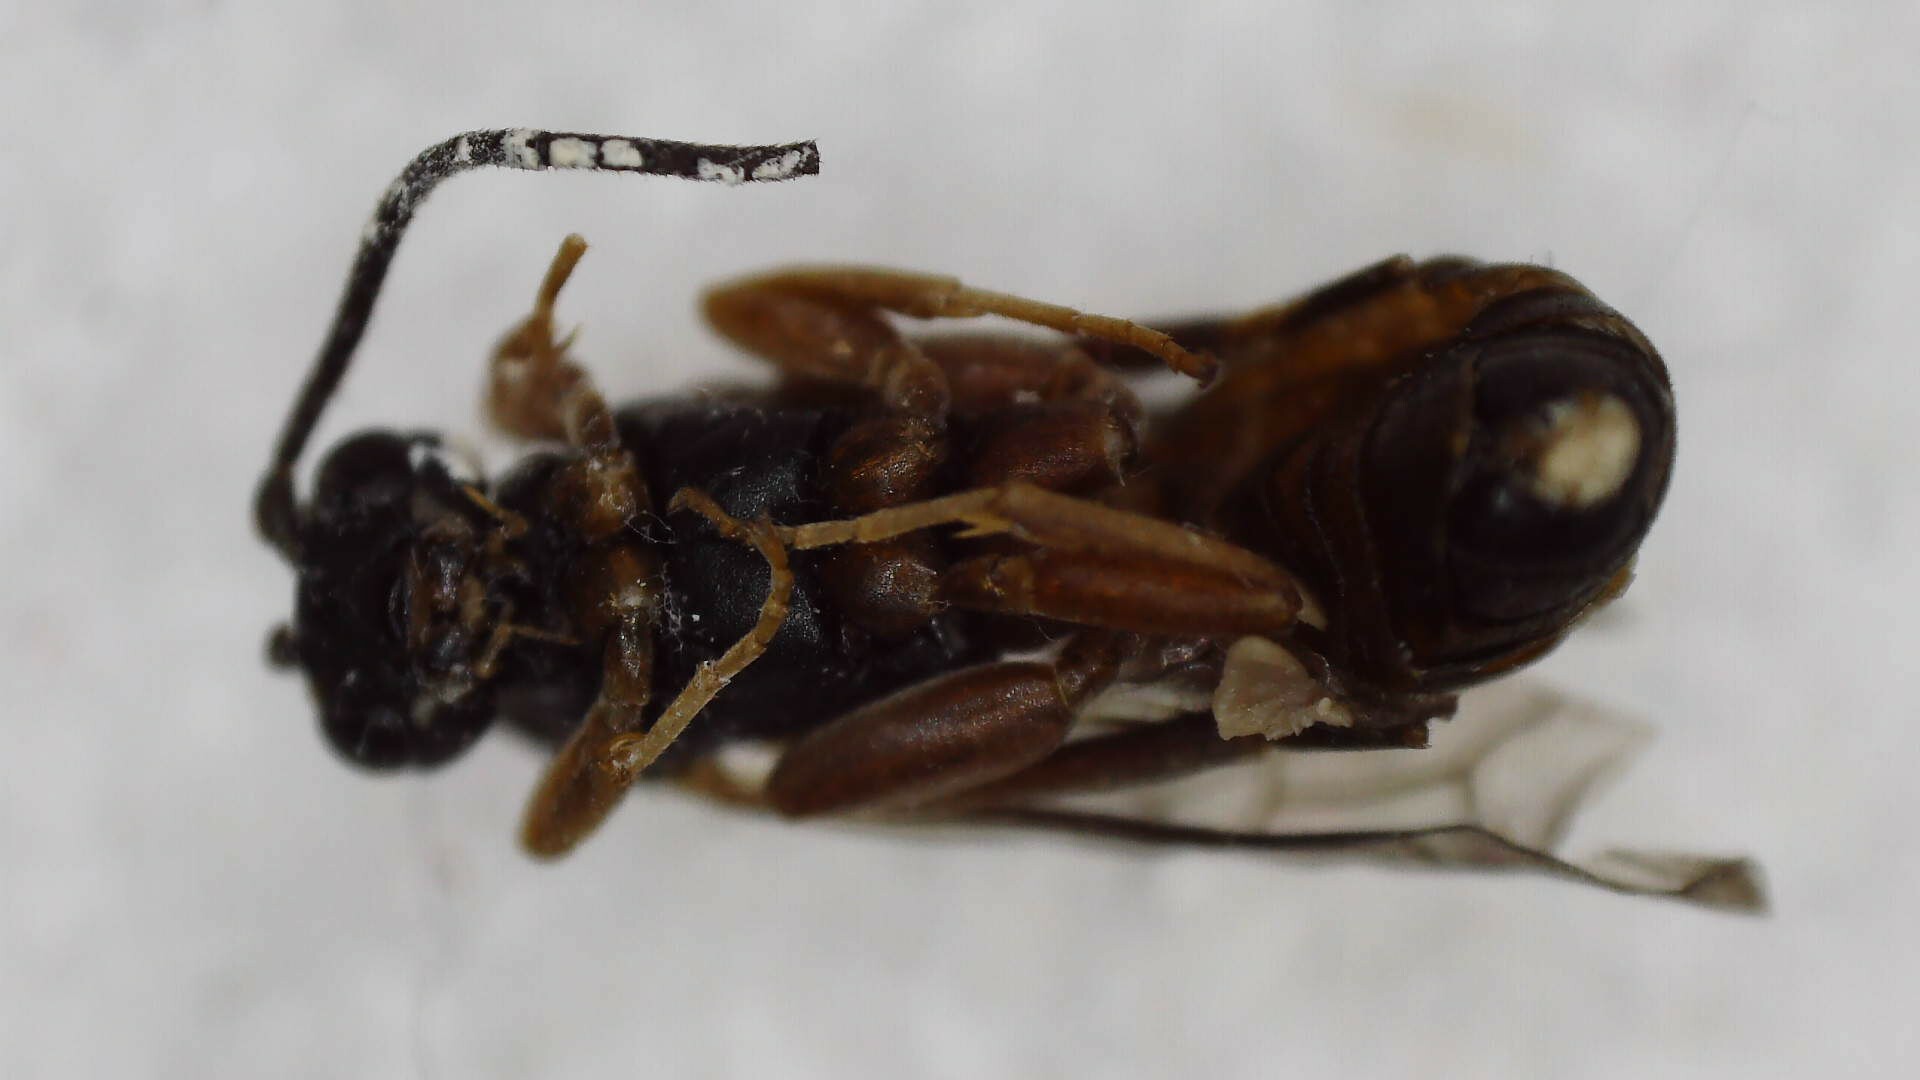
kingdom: Animalia
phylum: Arthropoda
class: Insecta
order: Hymenoptera
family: Ichneumonidae
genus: Sphecophaga
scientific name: Sphecophaga vesparum
